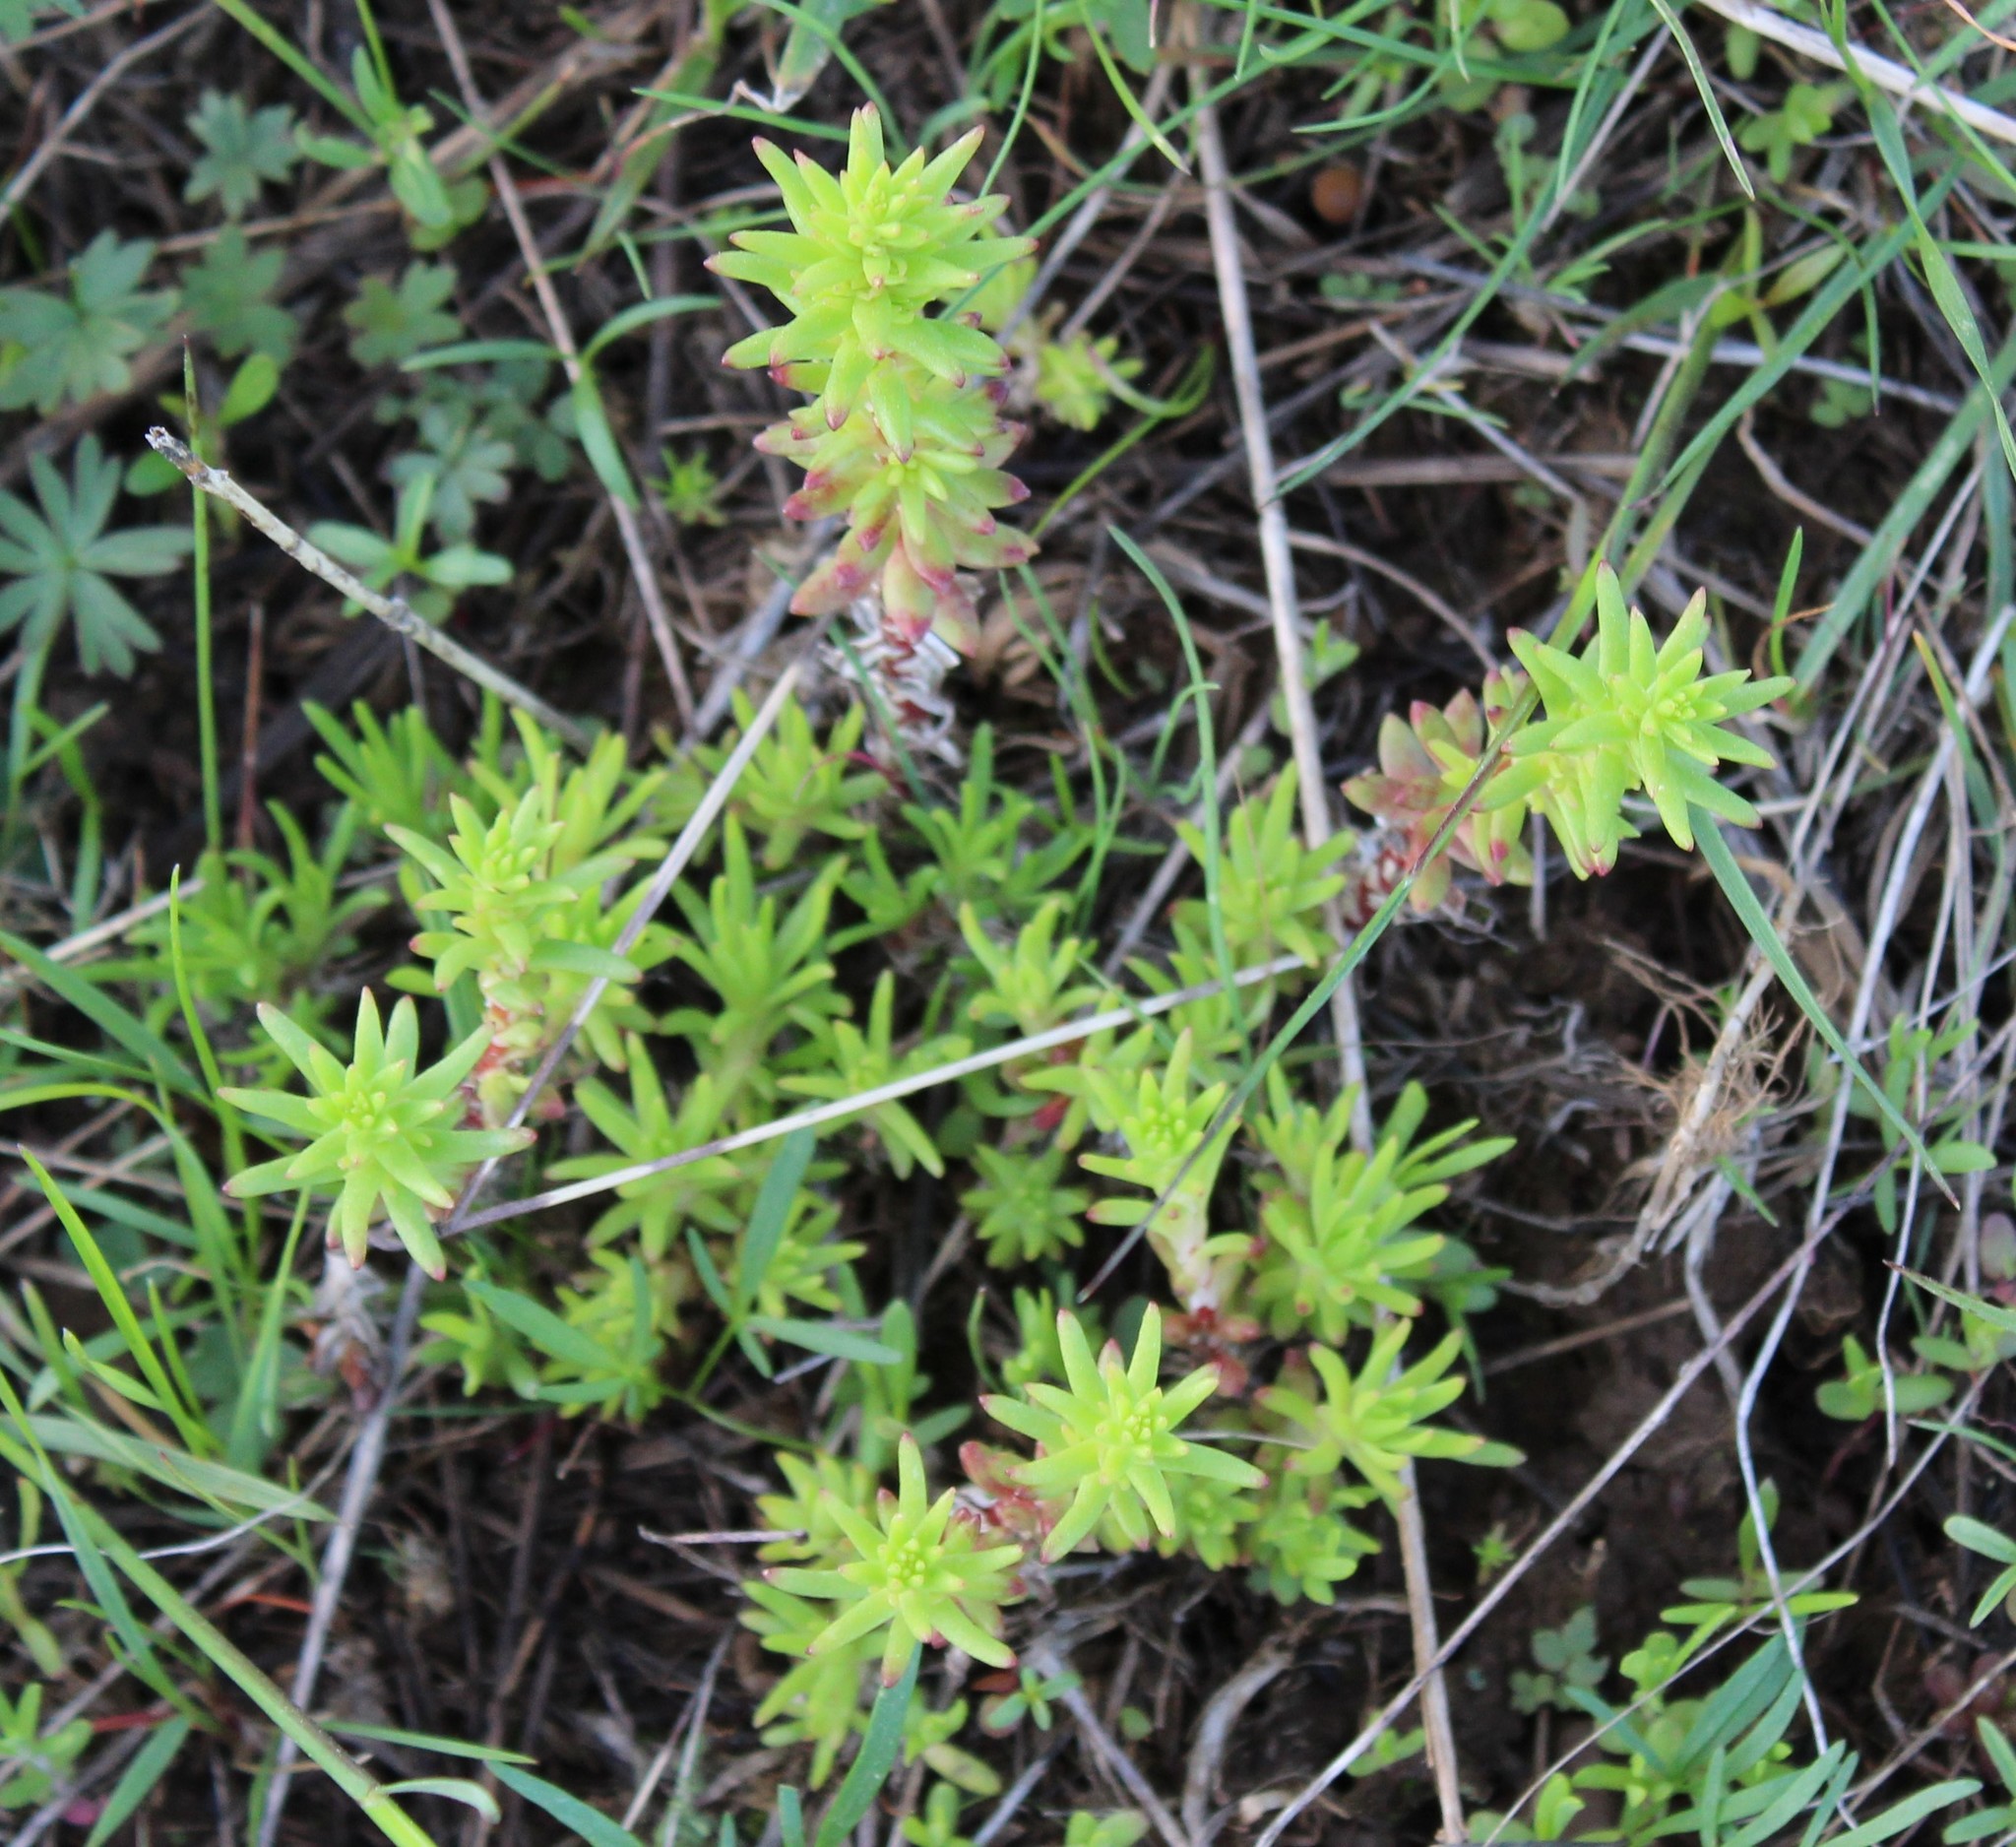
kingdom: Plantae
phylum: Tracheophyta
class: Magnoliopsida
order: Saxifragales
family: Crassulaceae
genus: Sedum
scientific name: Sedum stenopetalum
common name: Narrow-petaled stonecrop
